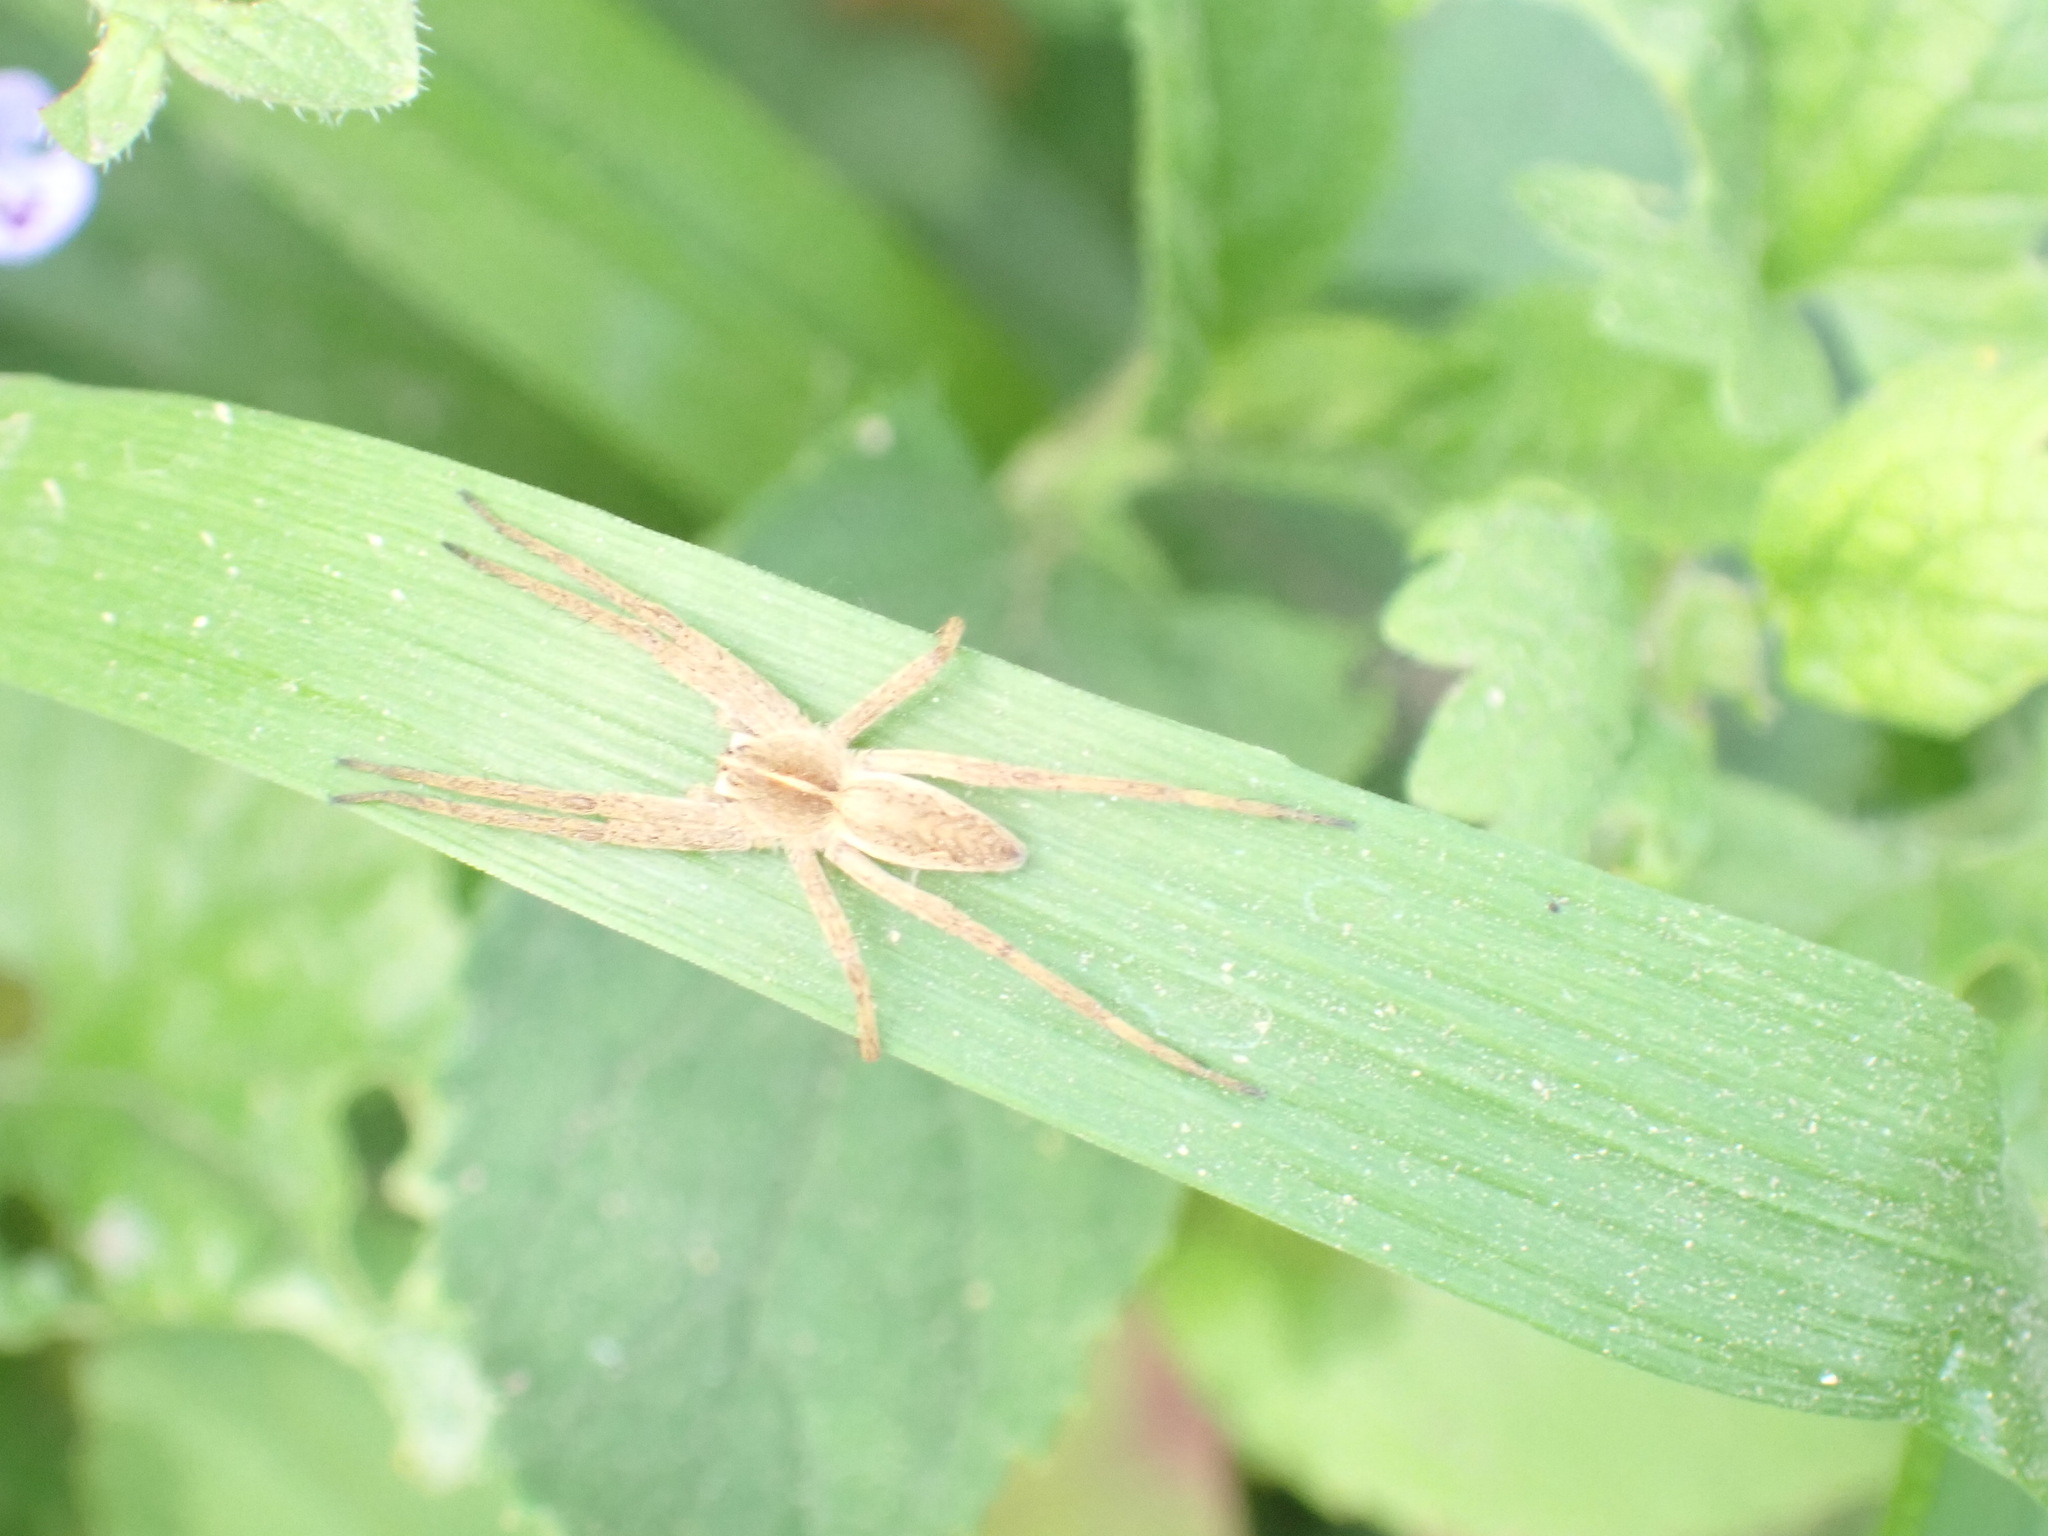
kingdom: Animalia
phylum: Arthropoda
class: Arachnida
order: Araneae
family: Pisauridae
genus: Pisaura
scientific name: Pisaura mirabilis
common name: Tent spider
